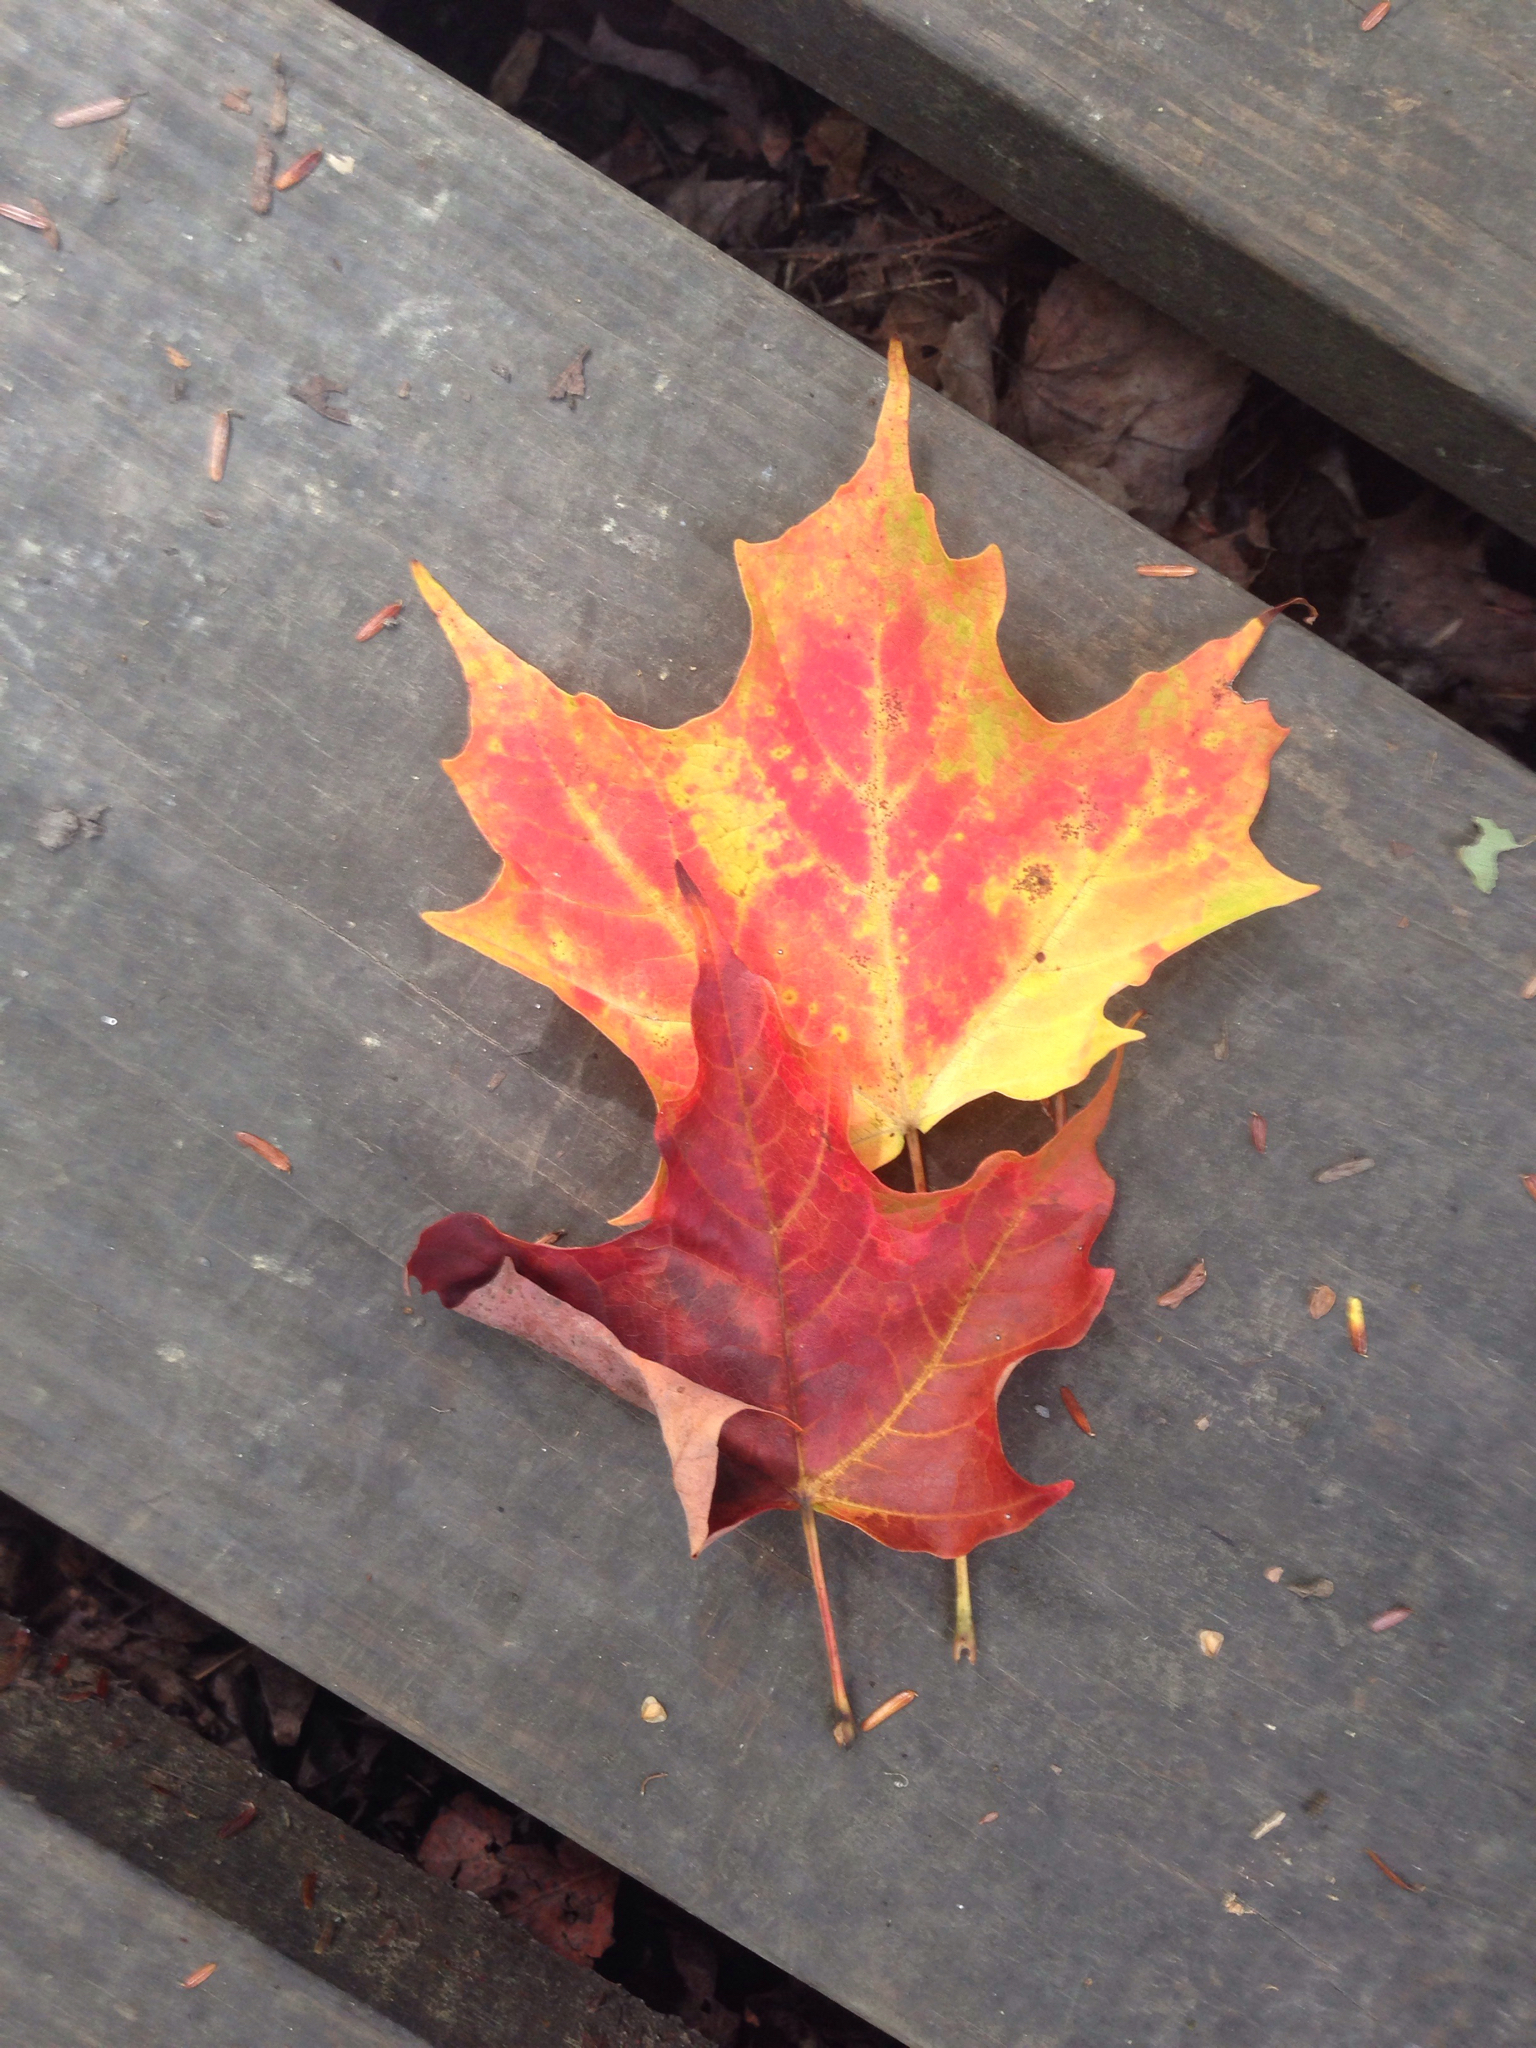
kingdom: Plantae
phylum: Tracheophyta
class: Magnoliopsida
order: Sapindales
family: Sapindaceae
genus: Acer
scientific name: Acer saccharum
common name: Sugar maple
